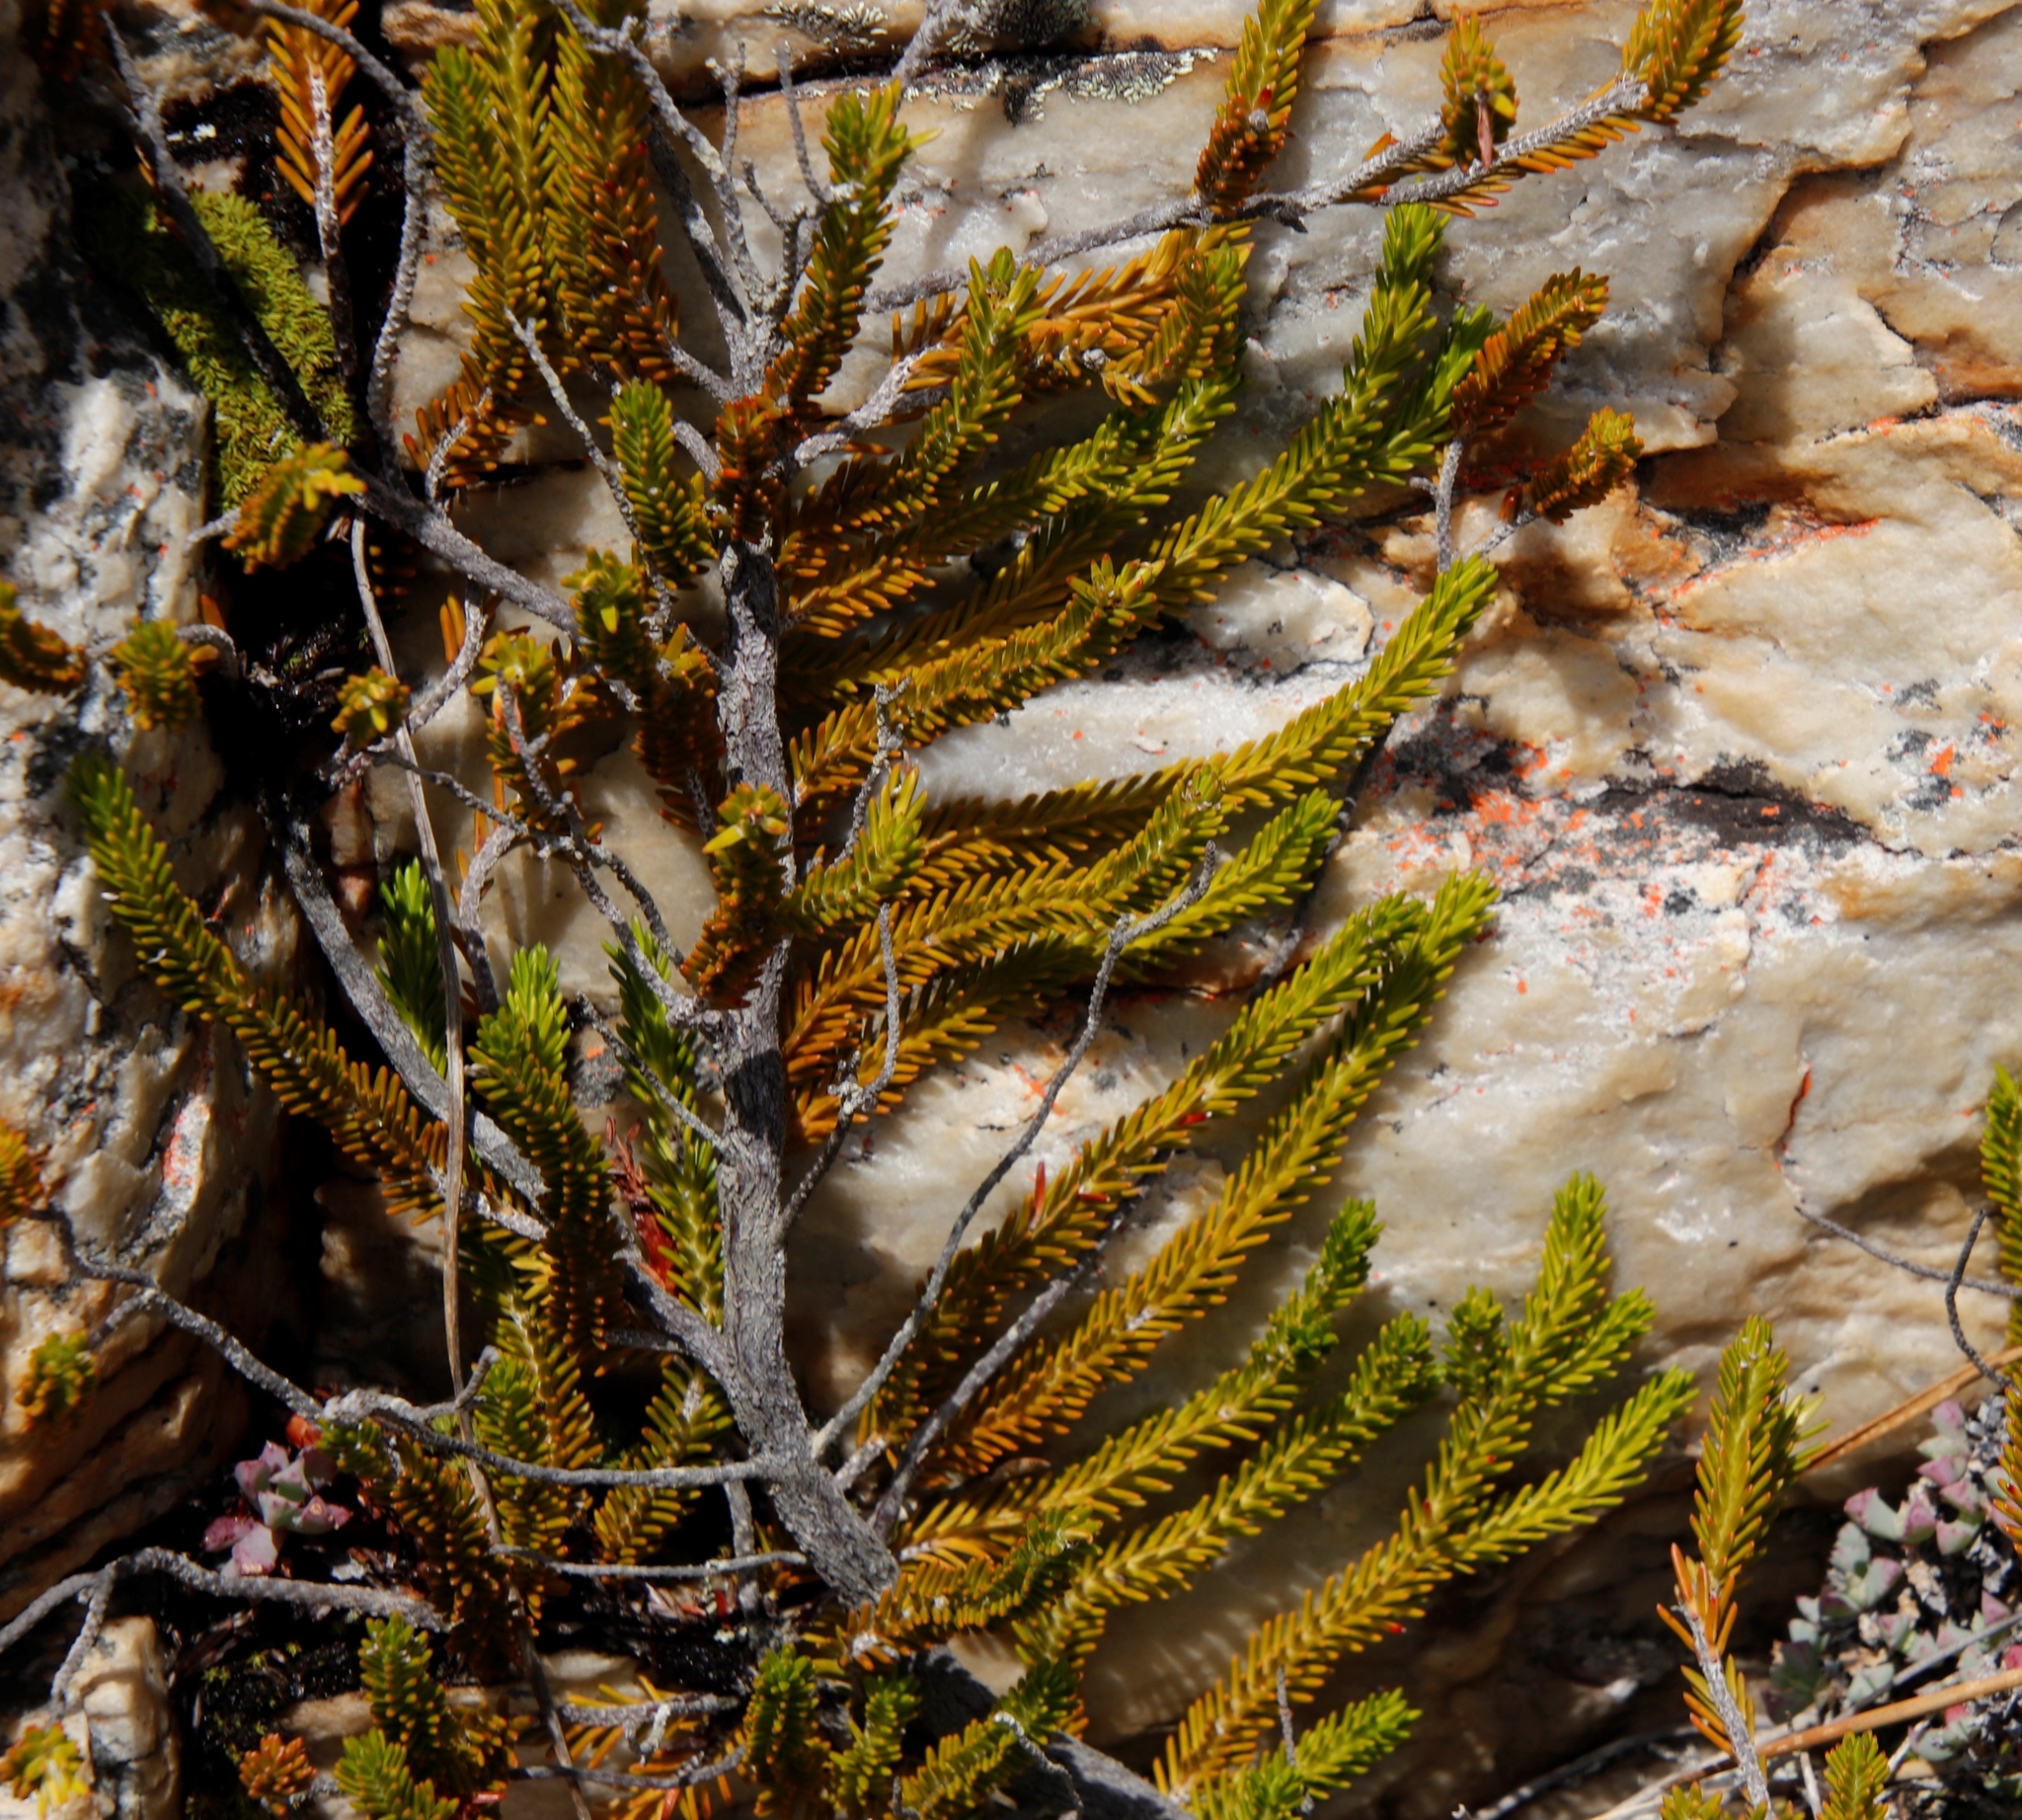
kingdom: Plantae
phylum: Tracheophyta
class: Magnoliopsida
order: Ericales
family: Ericaceae
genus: Erica
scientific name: Erica banksia
